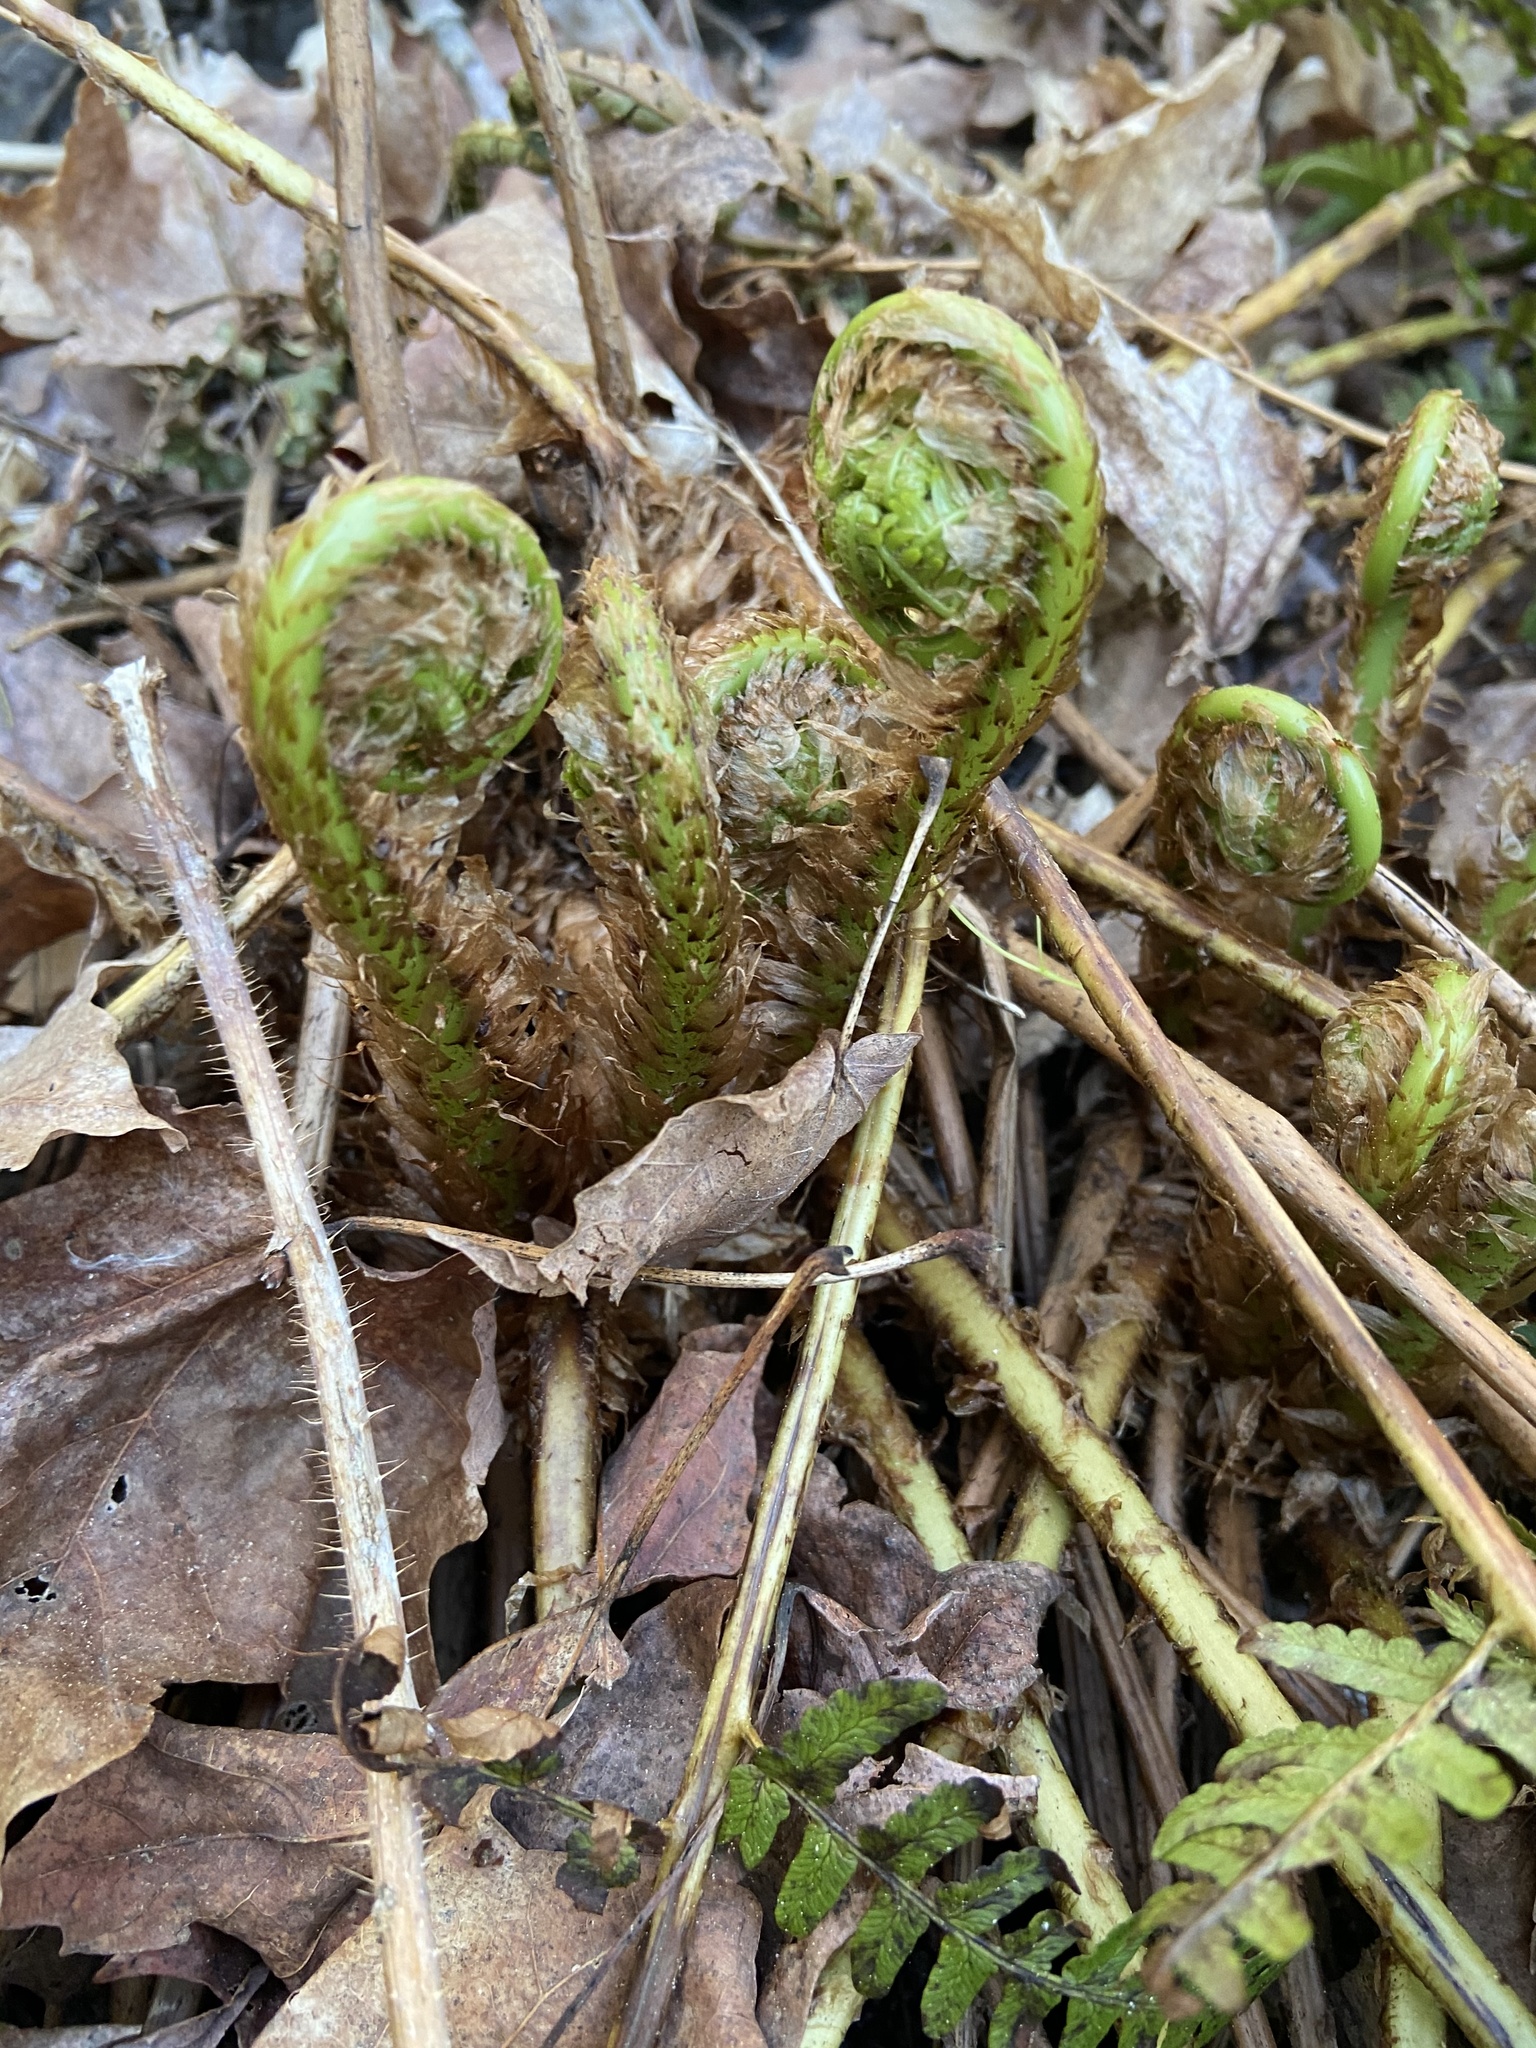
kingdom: Plantae
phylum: Tracheophyta
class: Polypodiopsida
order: Polypodiales
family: Dryopteridaceae
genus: Dryopteris
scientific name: Dryopteris marginalis
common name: Marginal wood fern
